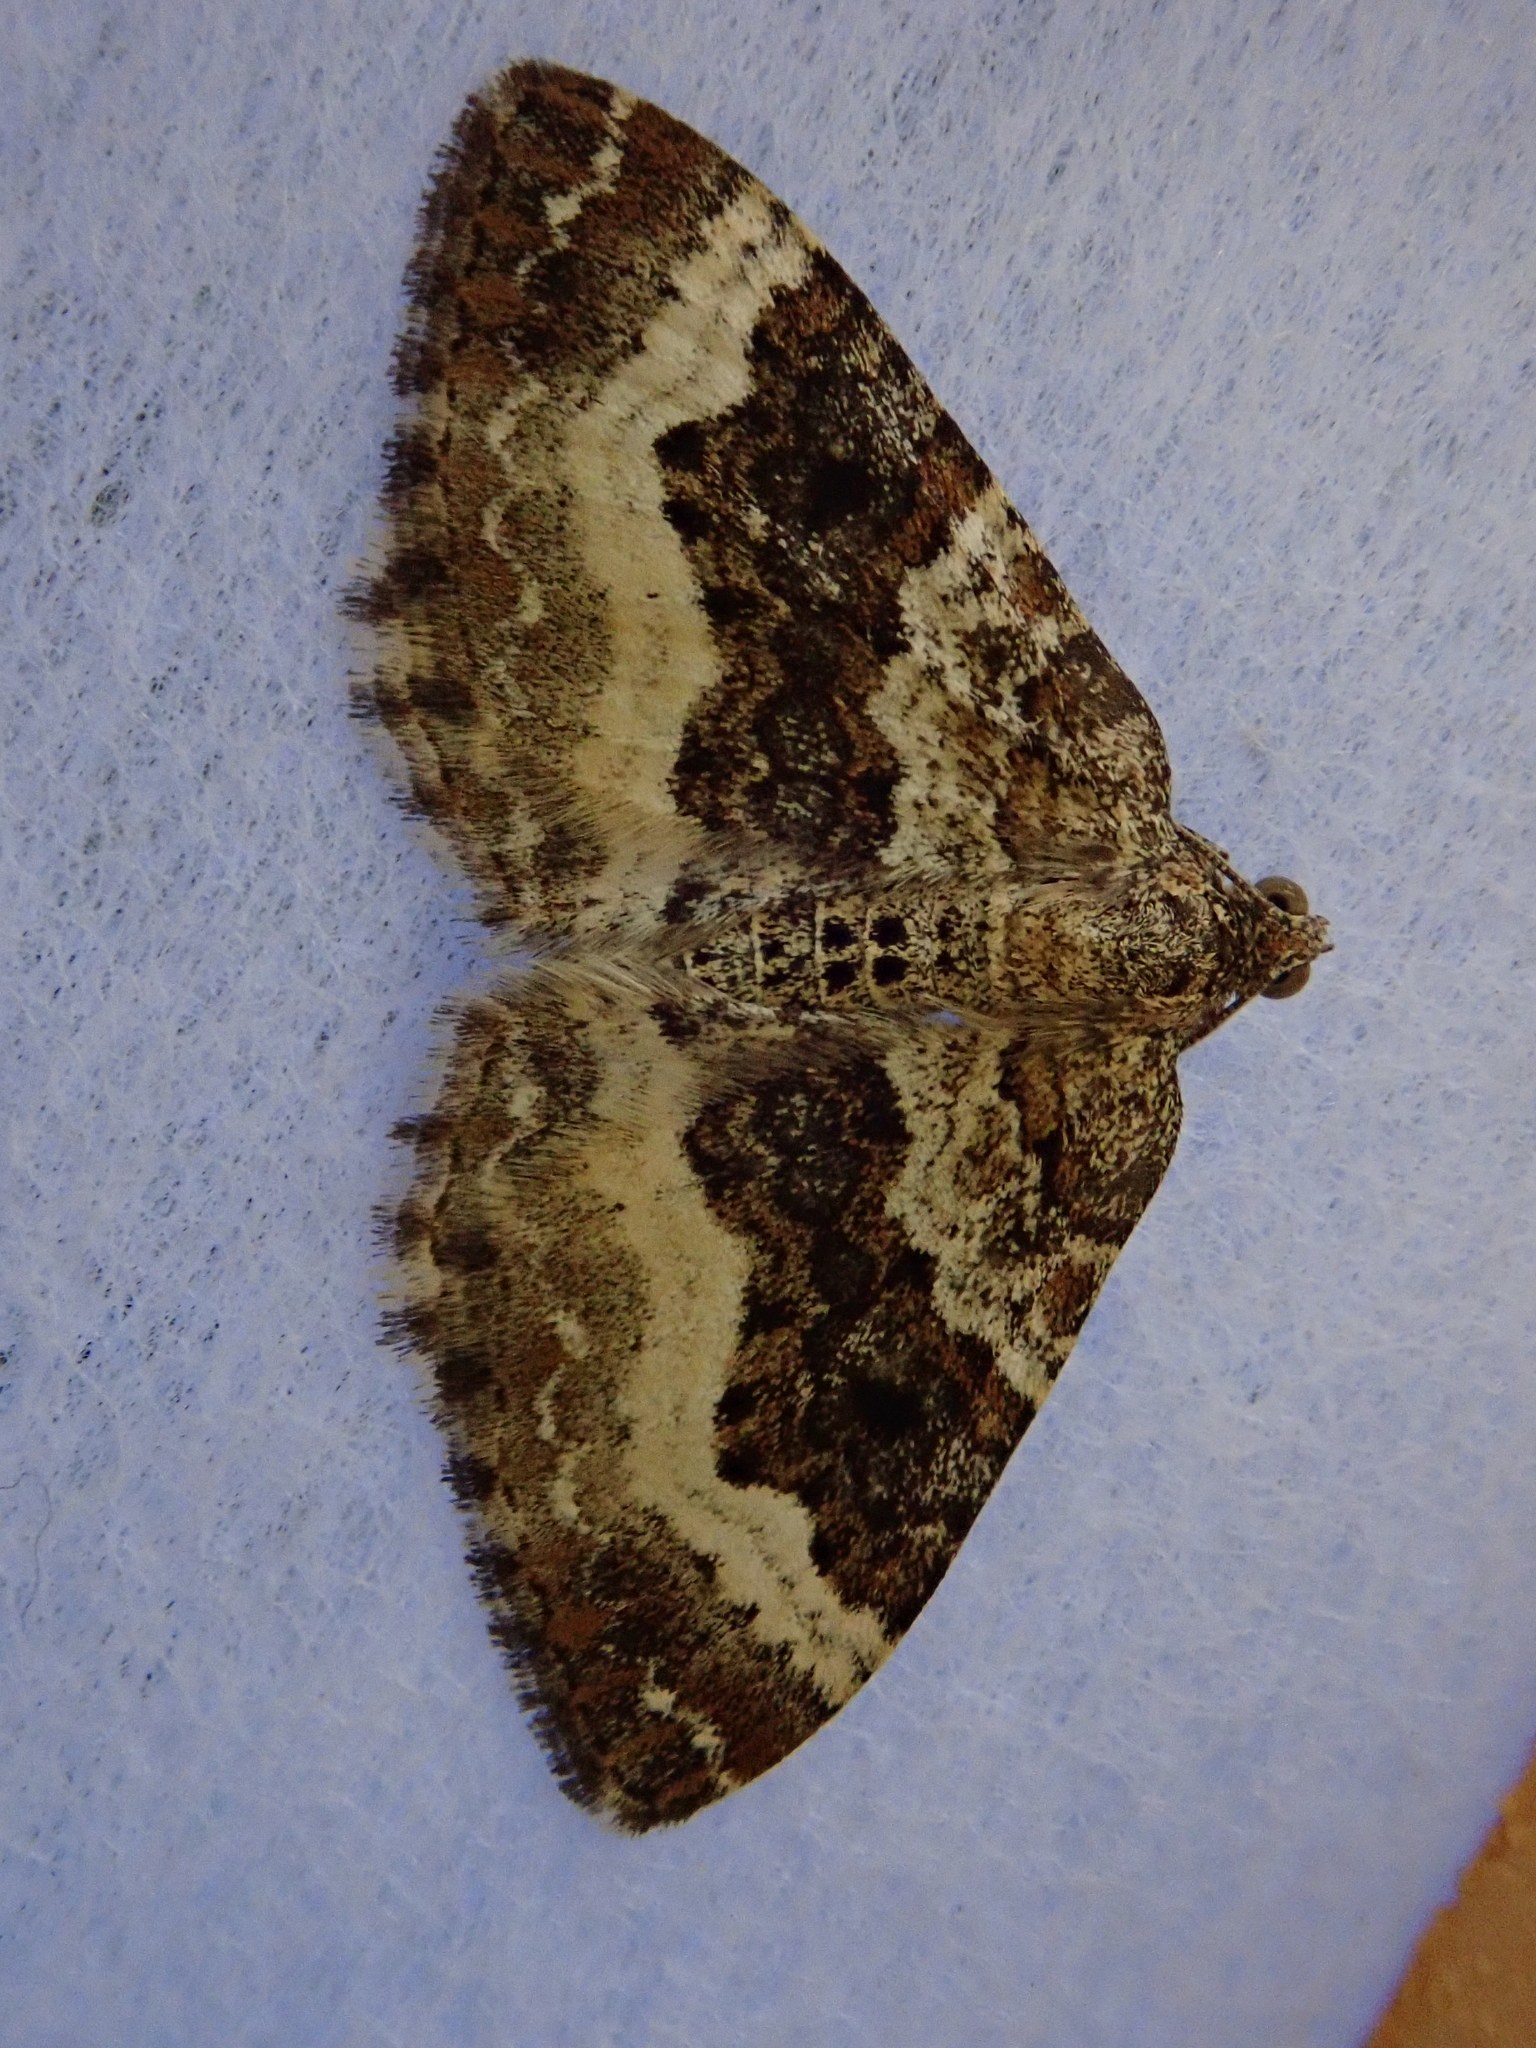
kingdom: Animalia
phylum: Arthropoda
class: Insecta
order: Lepidoptera
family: Geometridae
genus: Epirrhoe
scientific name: Epirrhoe alternata
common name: Common carpet
